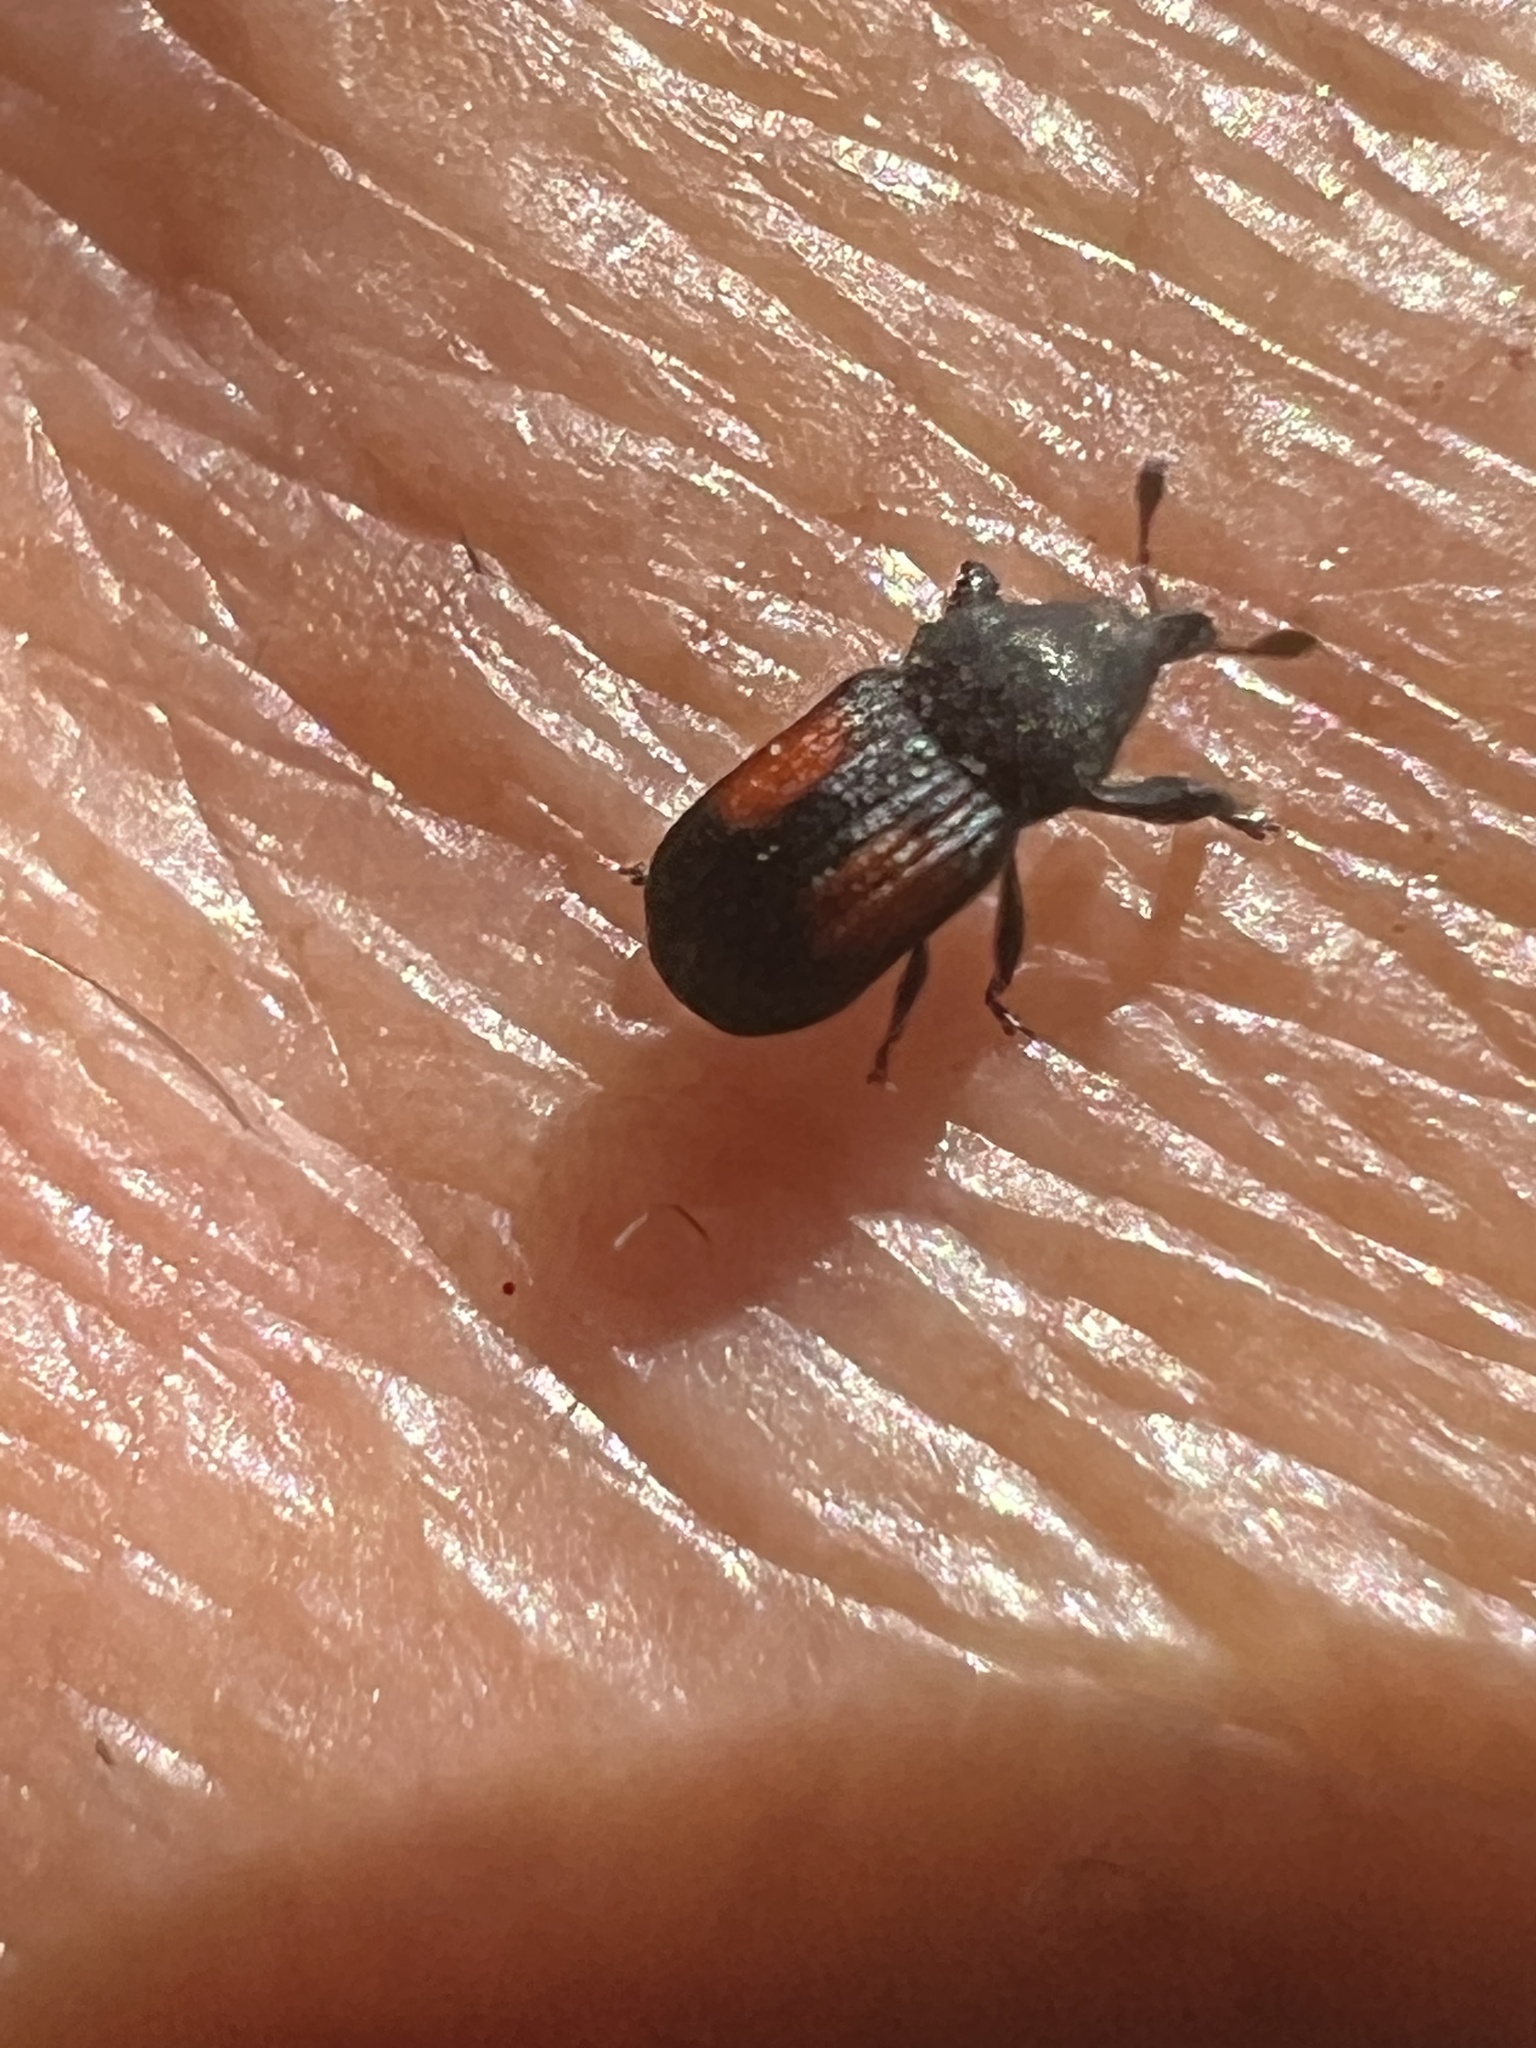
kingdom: Animalia
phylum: Arthropoda
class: Insecta
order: Coleoptera
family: Curculionidae
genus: Laemosaccus
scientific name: Laemosaccus obrieni
